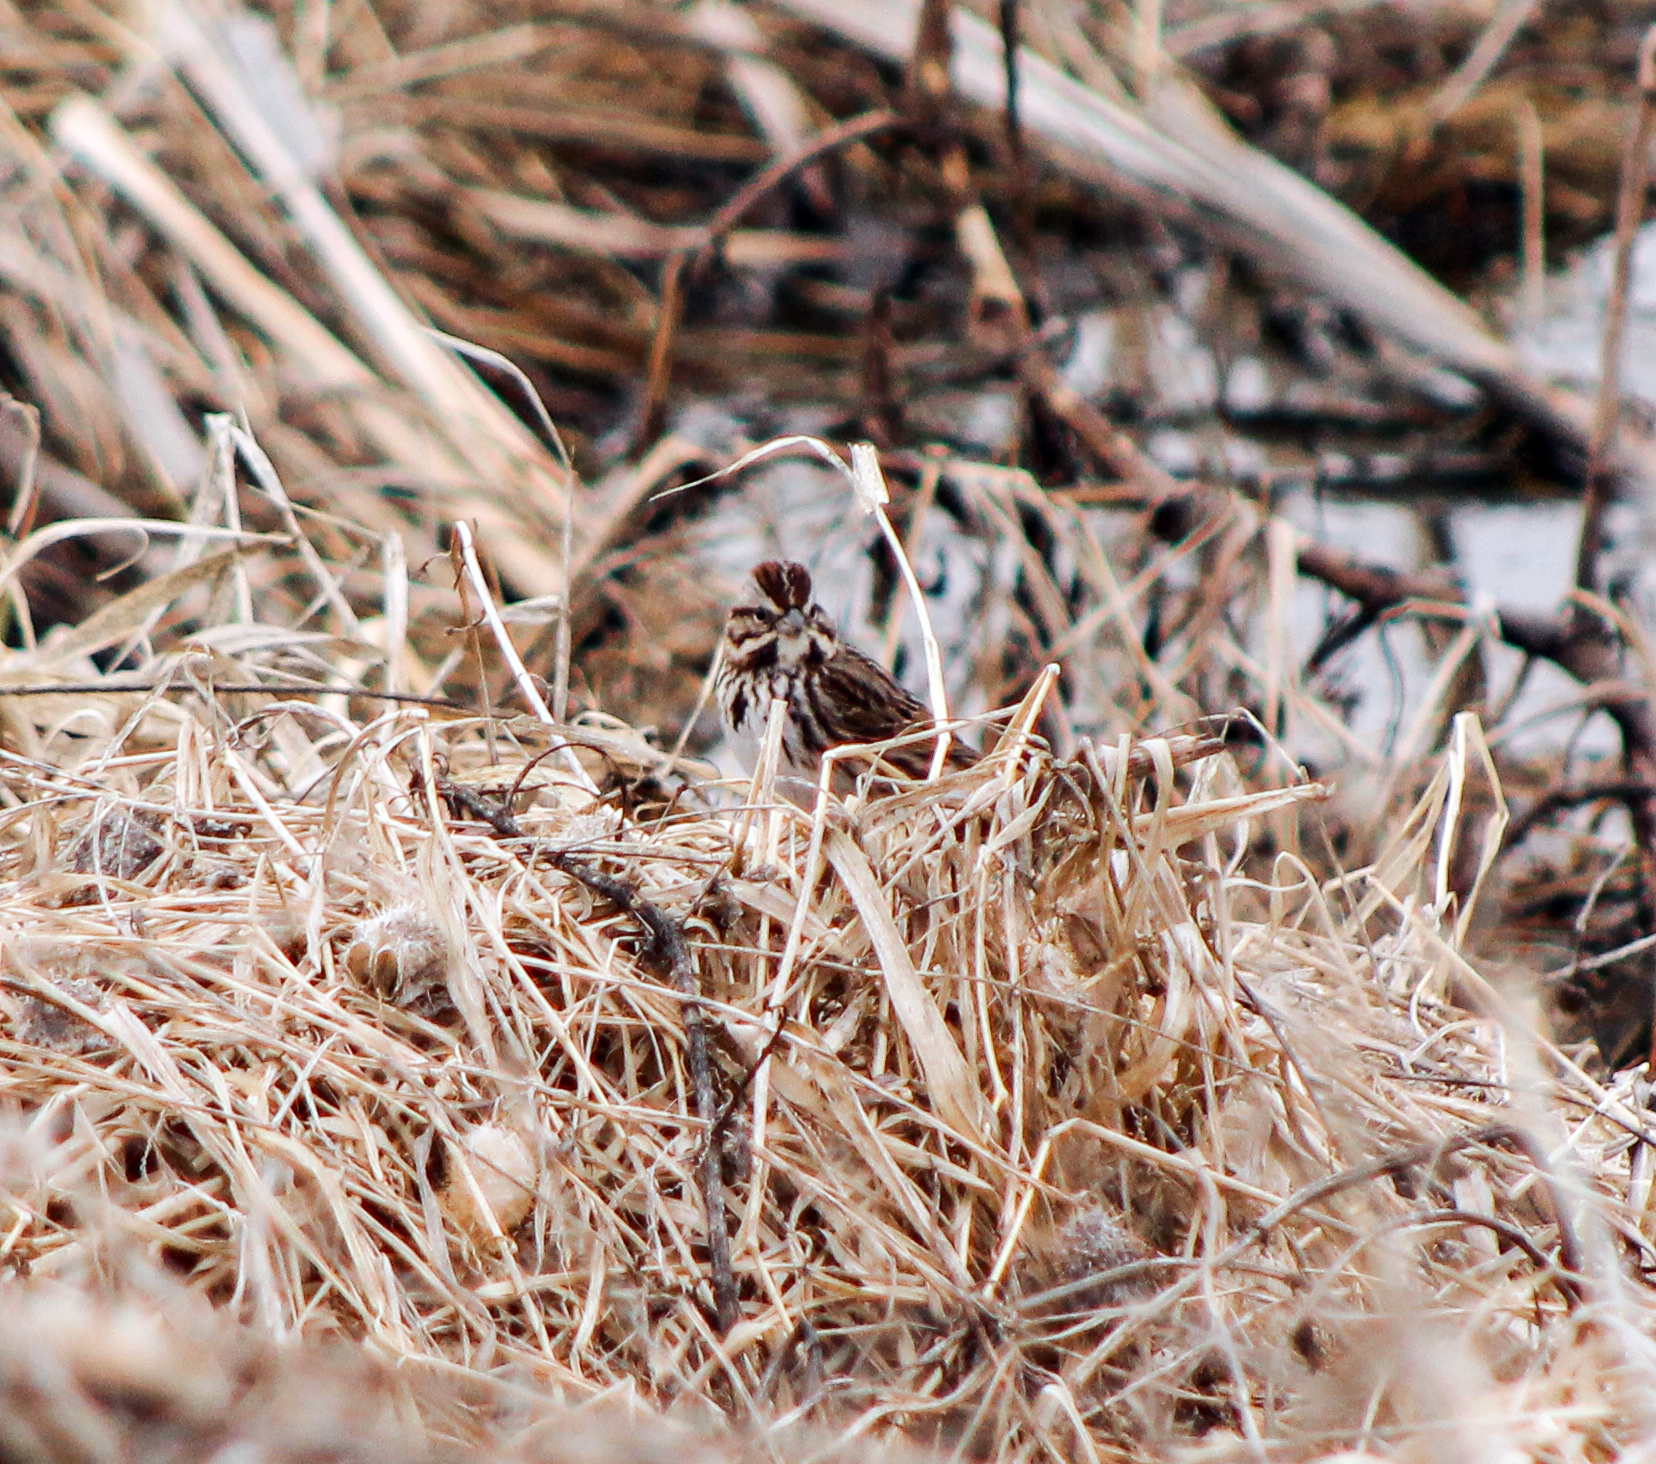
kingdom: Animalia
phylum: Chordata
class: Aves
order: Passeriformes
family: Passerellidae
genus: Melospiza
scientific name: Melospiza melodia
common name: Song sparrow
